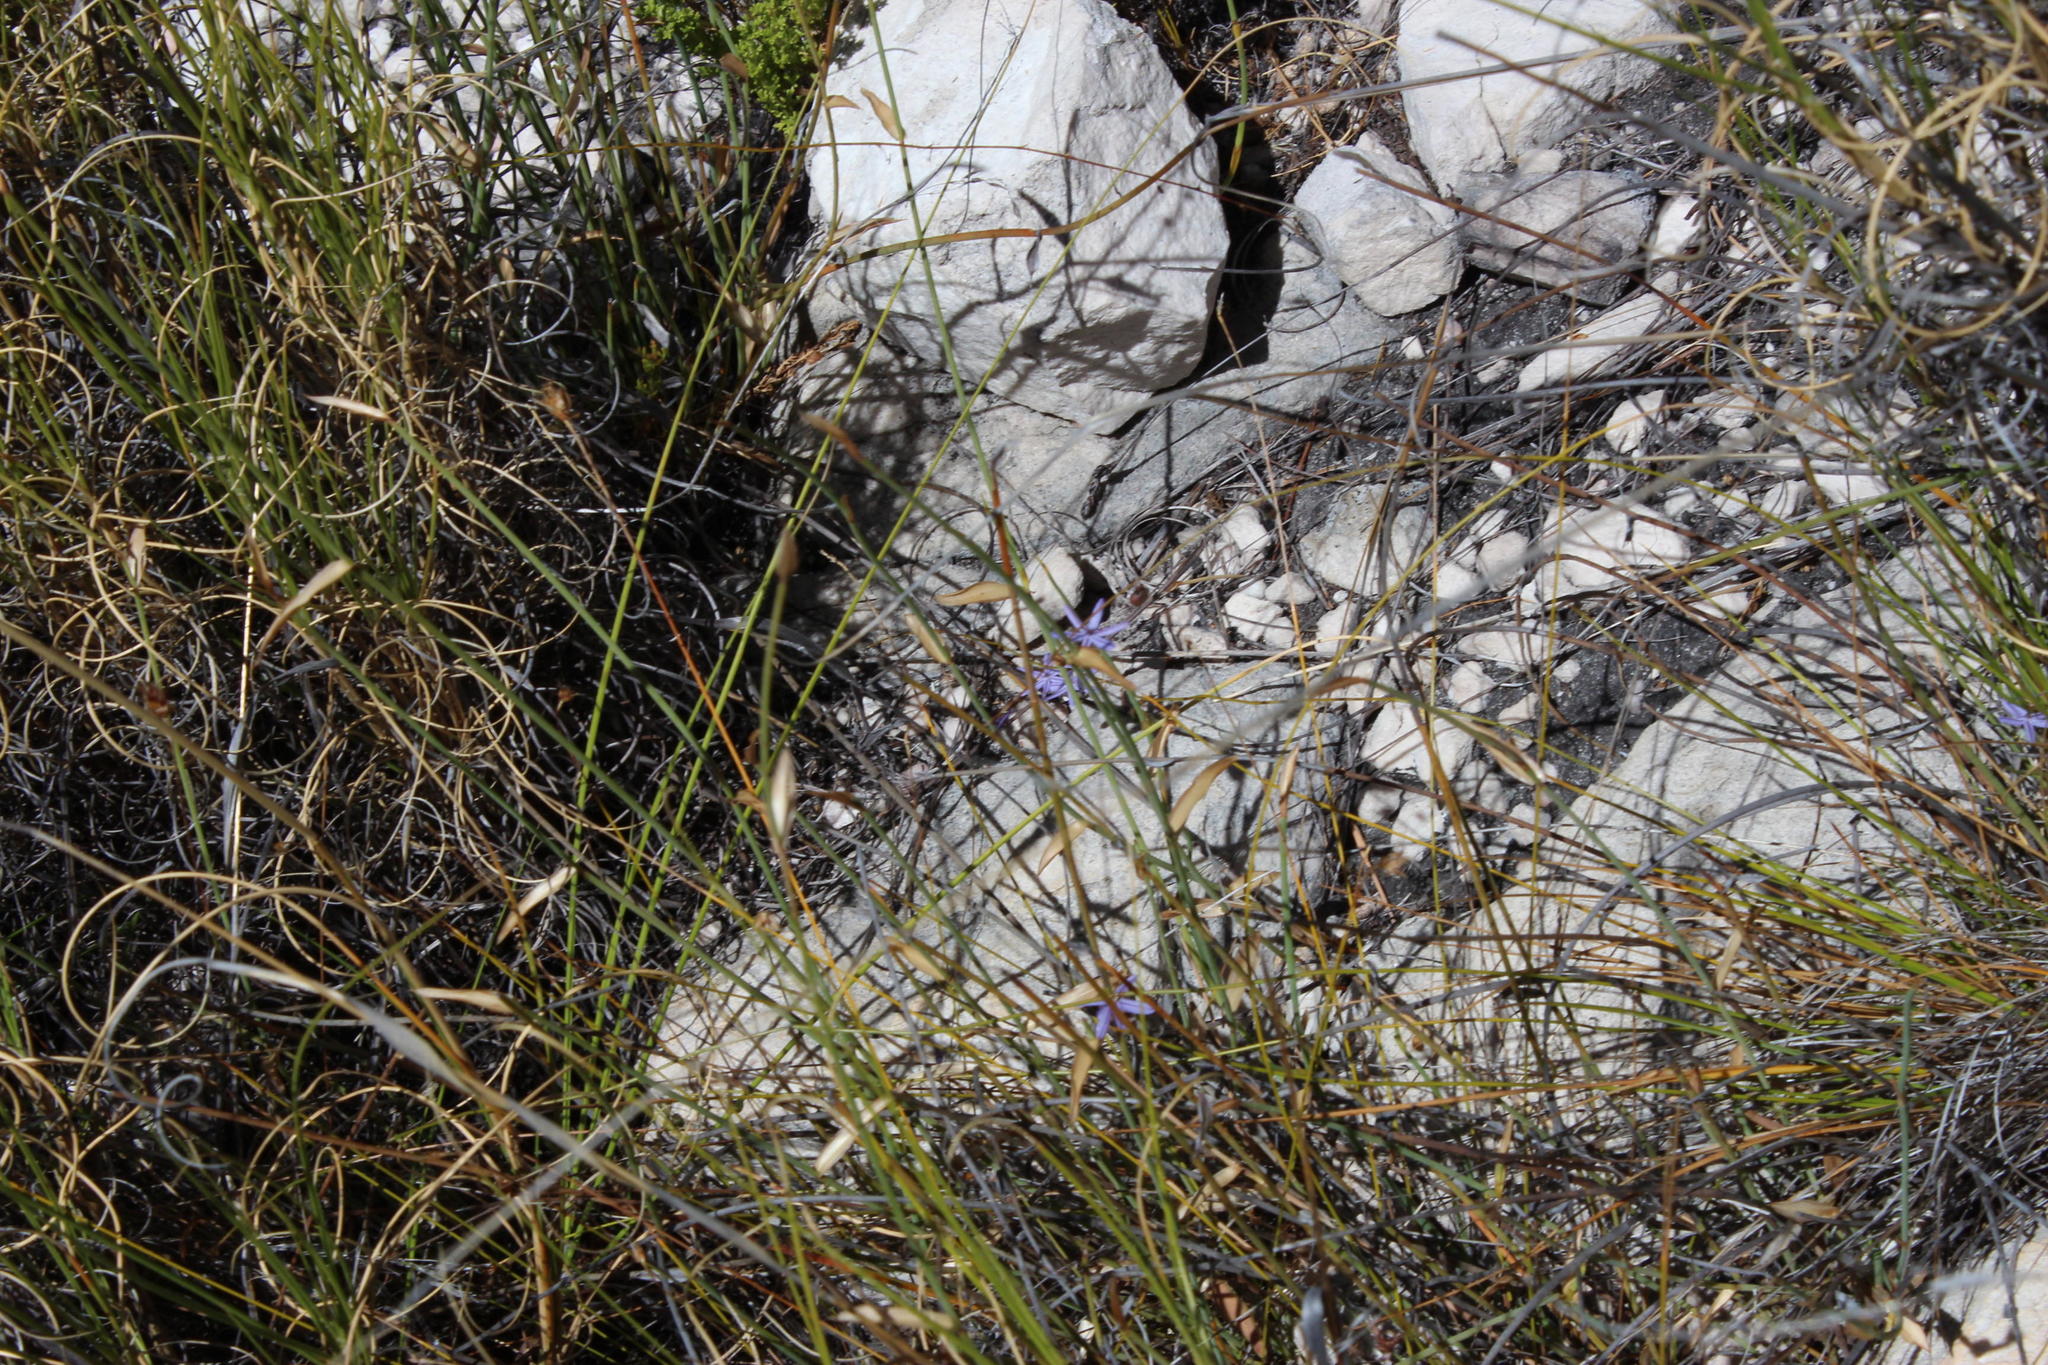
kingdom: Plantae
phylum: Tracheophyta
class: Liliopsida
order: Asparagales
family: Asphodelaceae
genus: Caesia
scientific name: Caesia contorta
